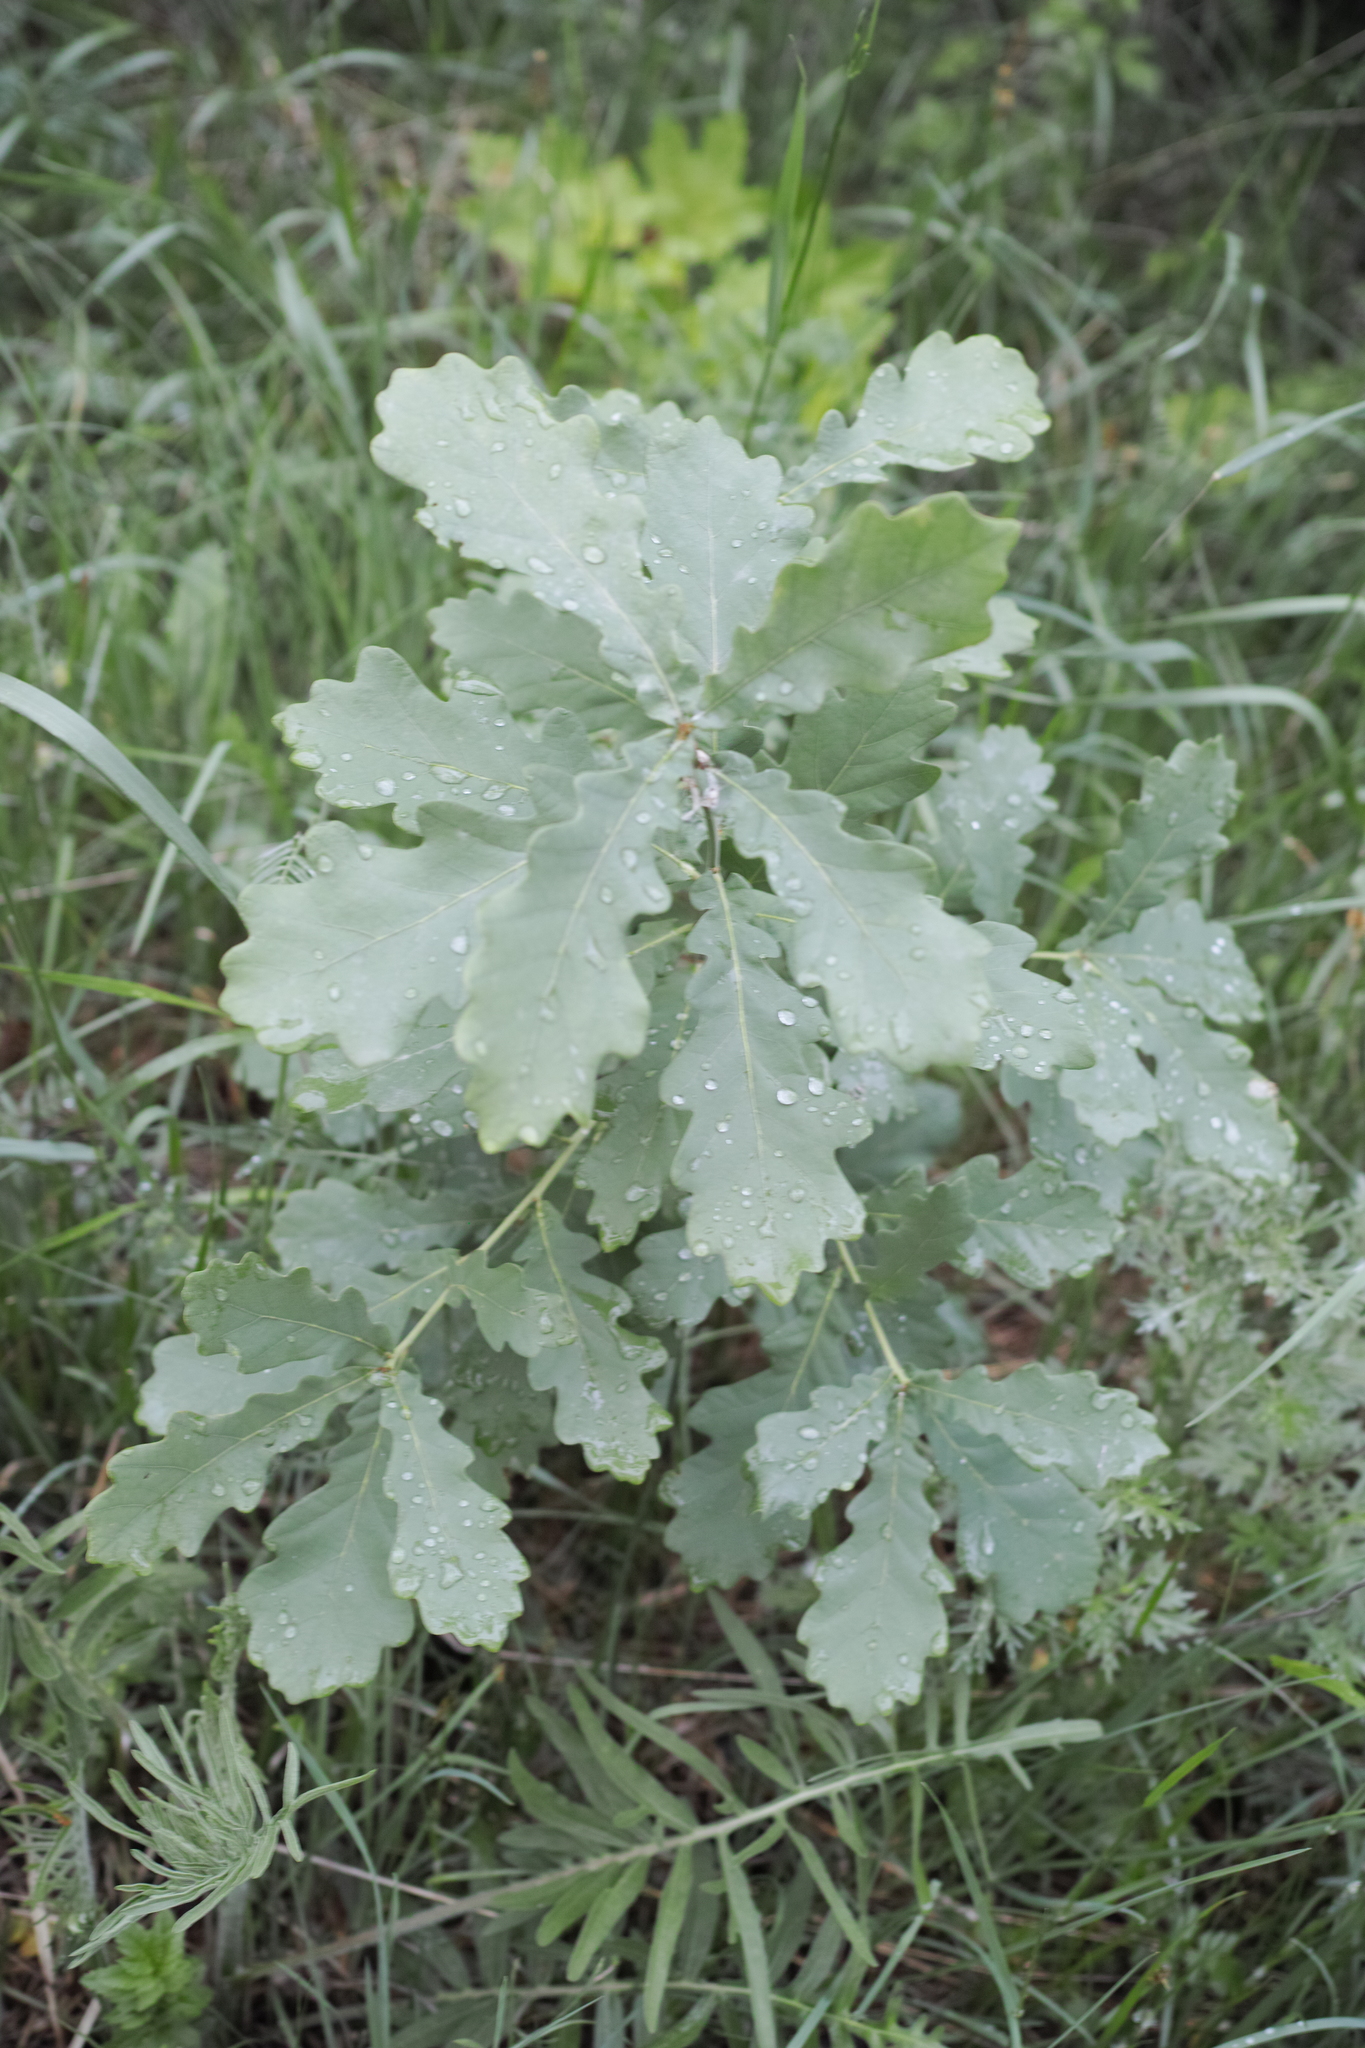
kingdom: Plantae
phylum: Tracheophyta
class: Magnoliopsida
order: Fagales
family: Fagaceae
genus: Quercus
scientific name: Quercus robur
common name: Pedunculate oak
